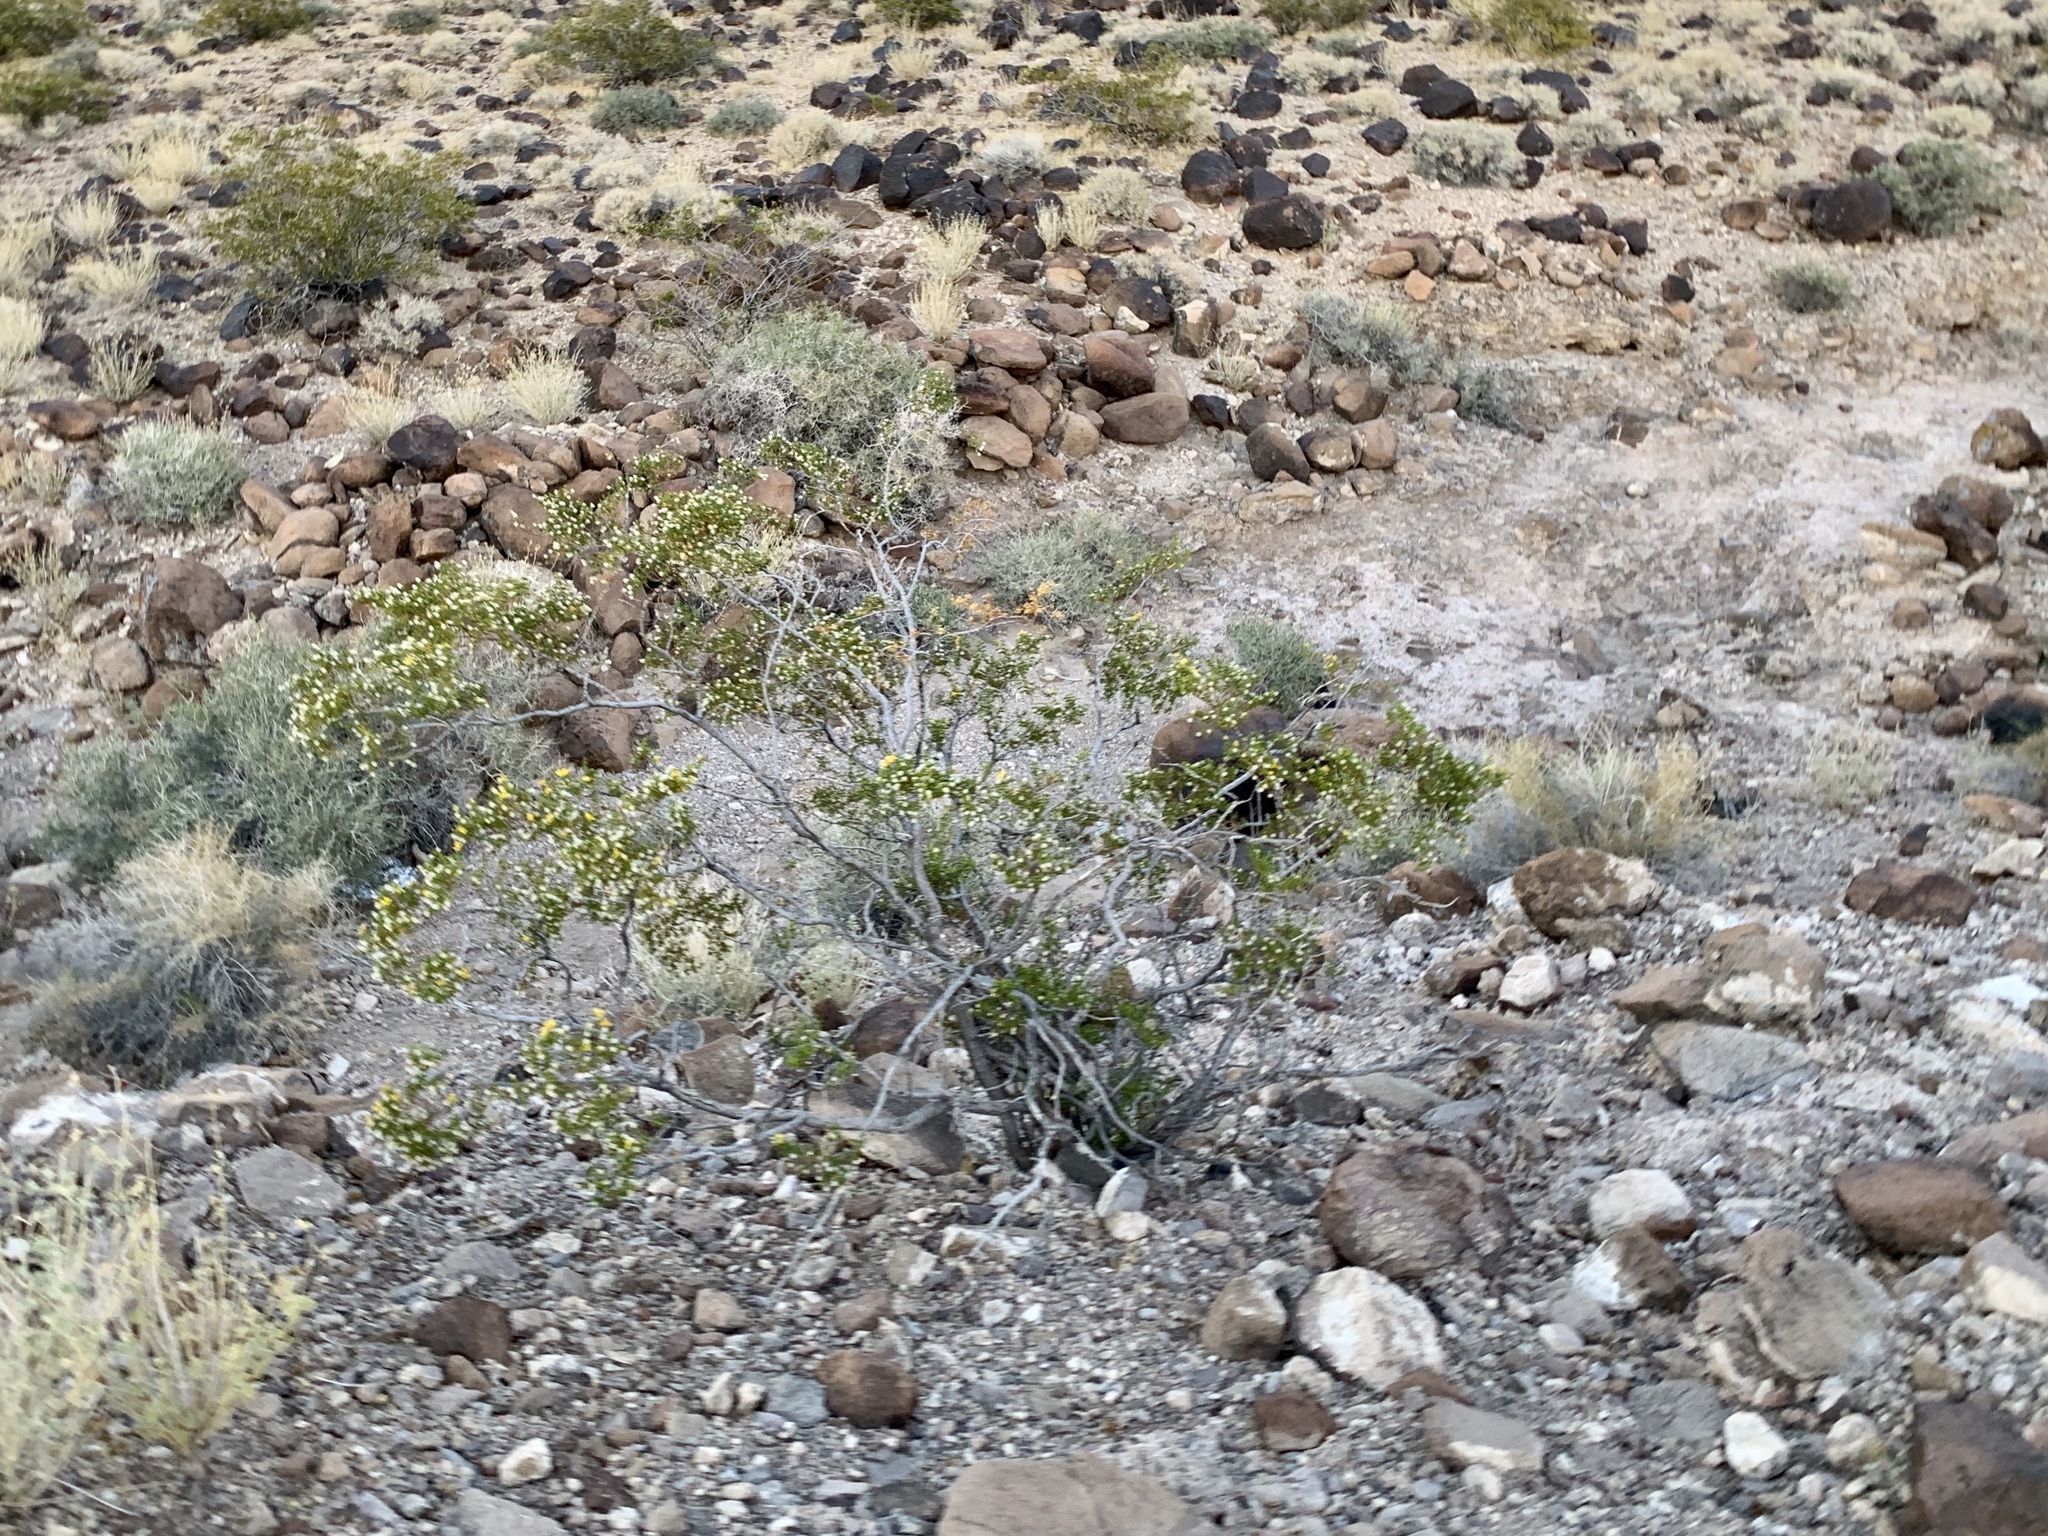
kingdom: Plantae
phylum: Tracheophyta
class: Magnoliopsida
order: Zygophyllales
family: Zygophyllaceae
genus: Larrea
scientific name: Larrea tridentata
